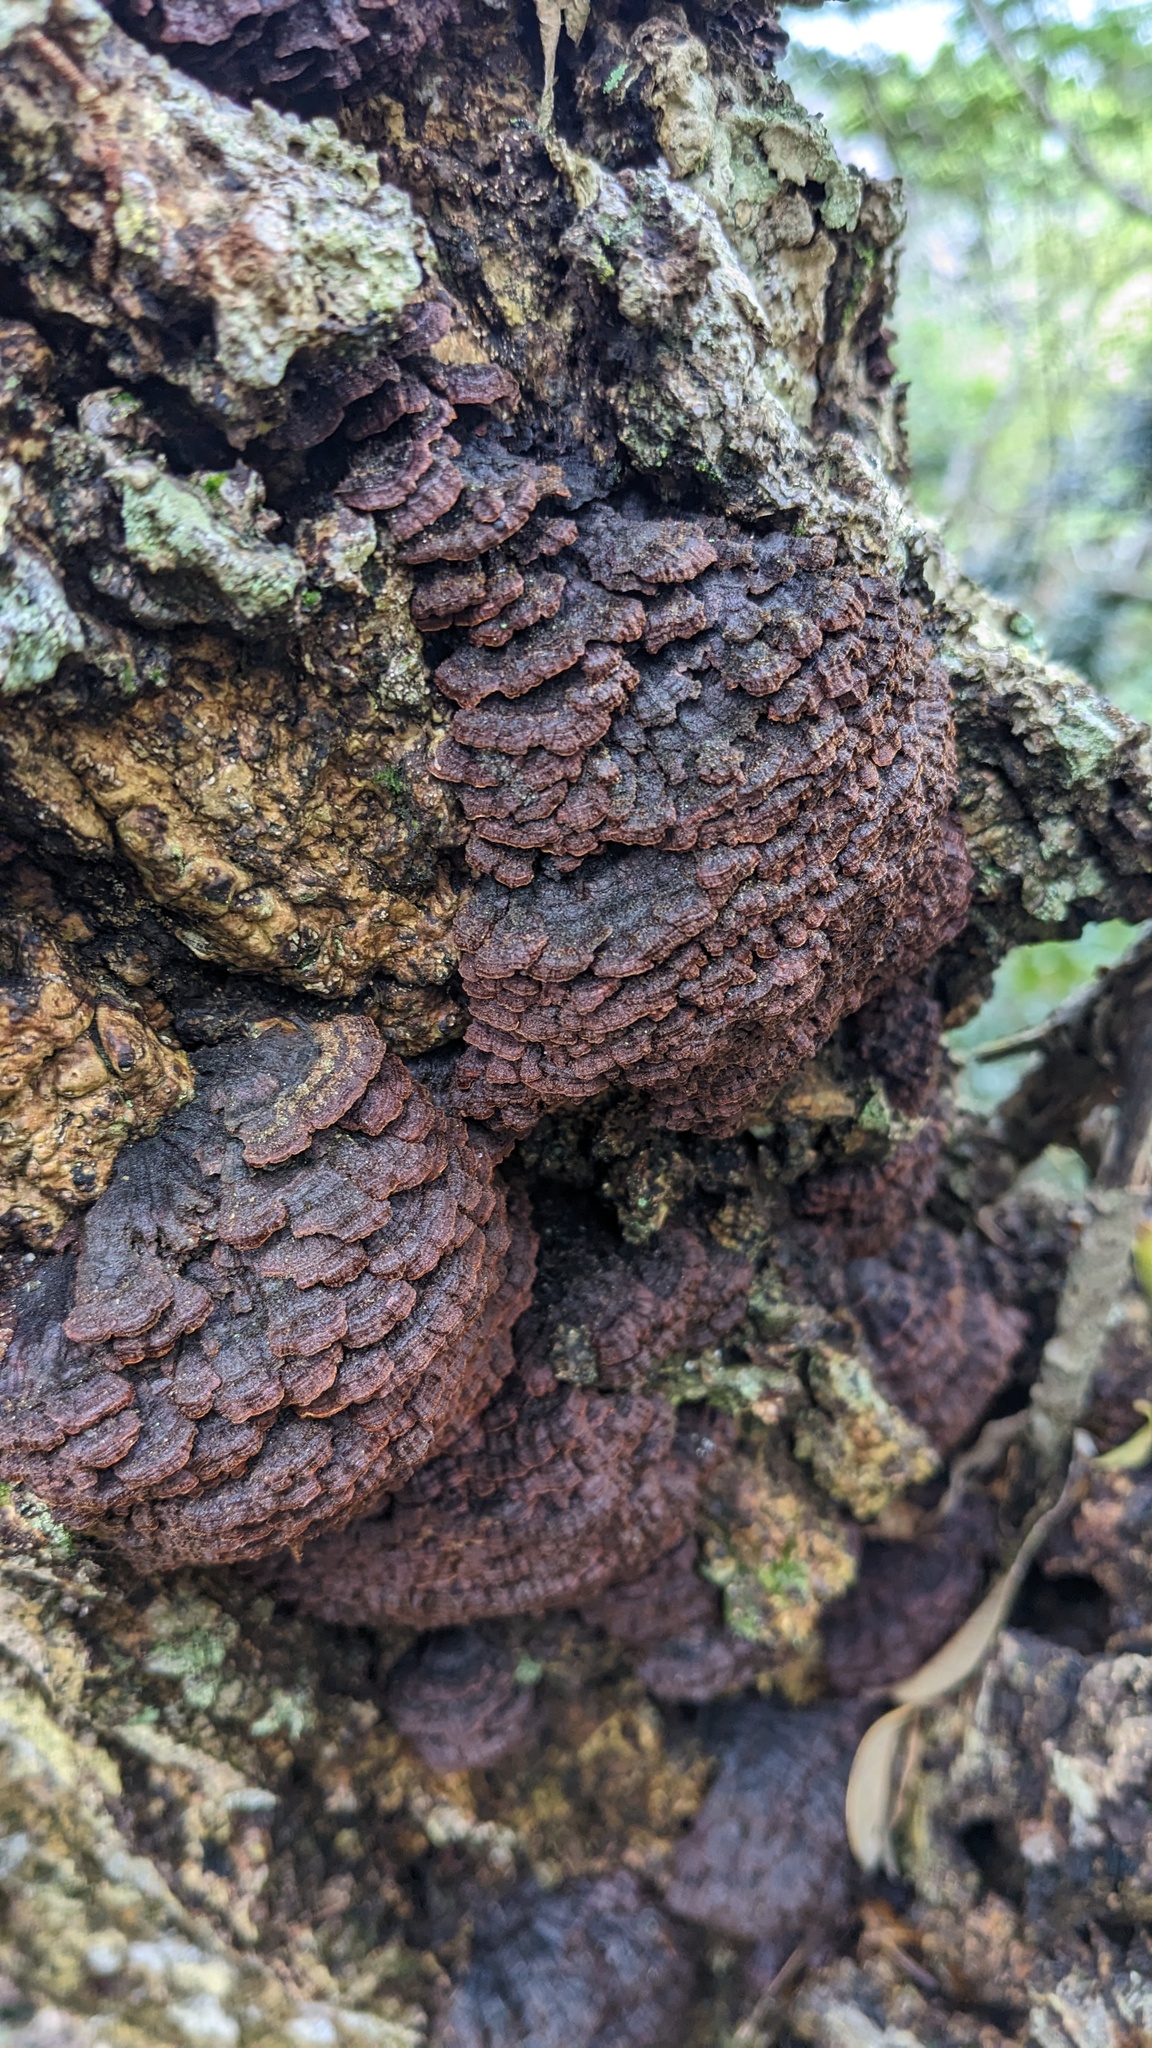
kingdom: Fungi
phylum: Basidiomycota
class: Agaricomycetes
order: Hymenochaetales
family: Hymenochaetaceae
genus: Hymenochaete
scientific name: Hymenochaete cyclolamellata
